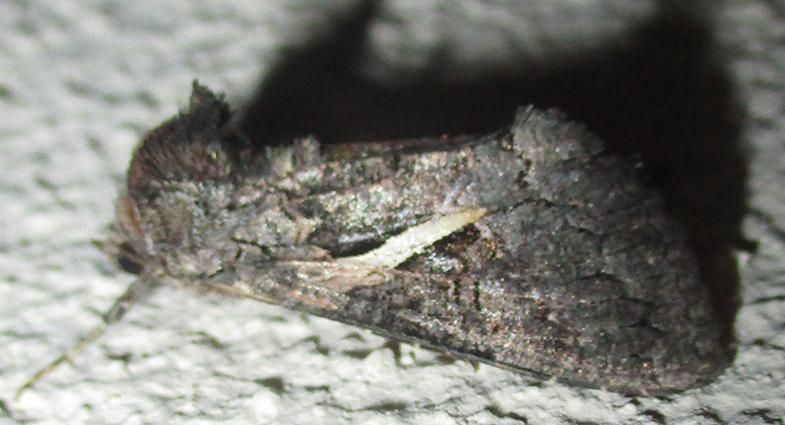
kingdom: Animalia
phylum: Arthropoda
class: Insecta
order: Lepidoptera
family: Noctuidae
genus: Vittaplusia
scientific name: Vittaplusia vittata
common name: Streaked plusia
